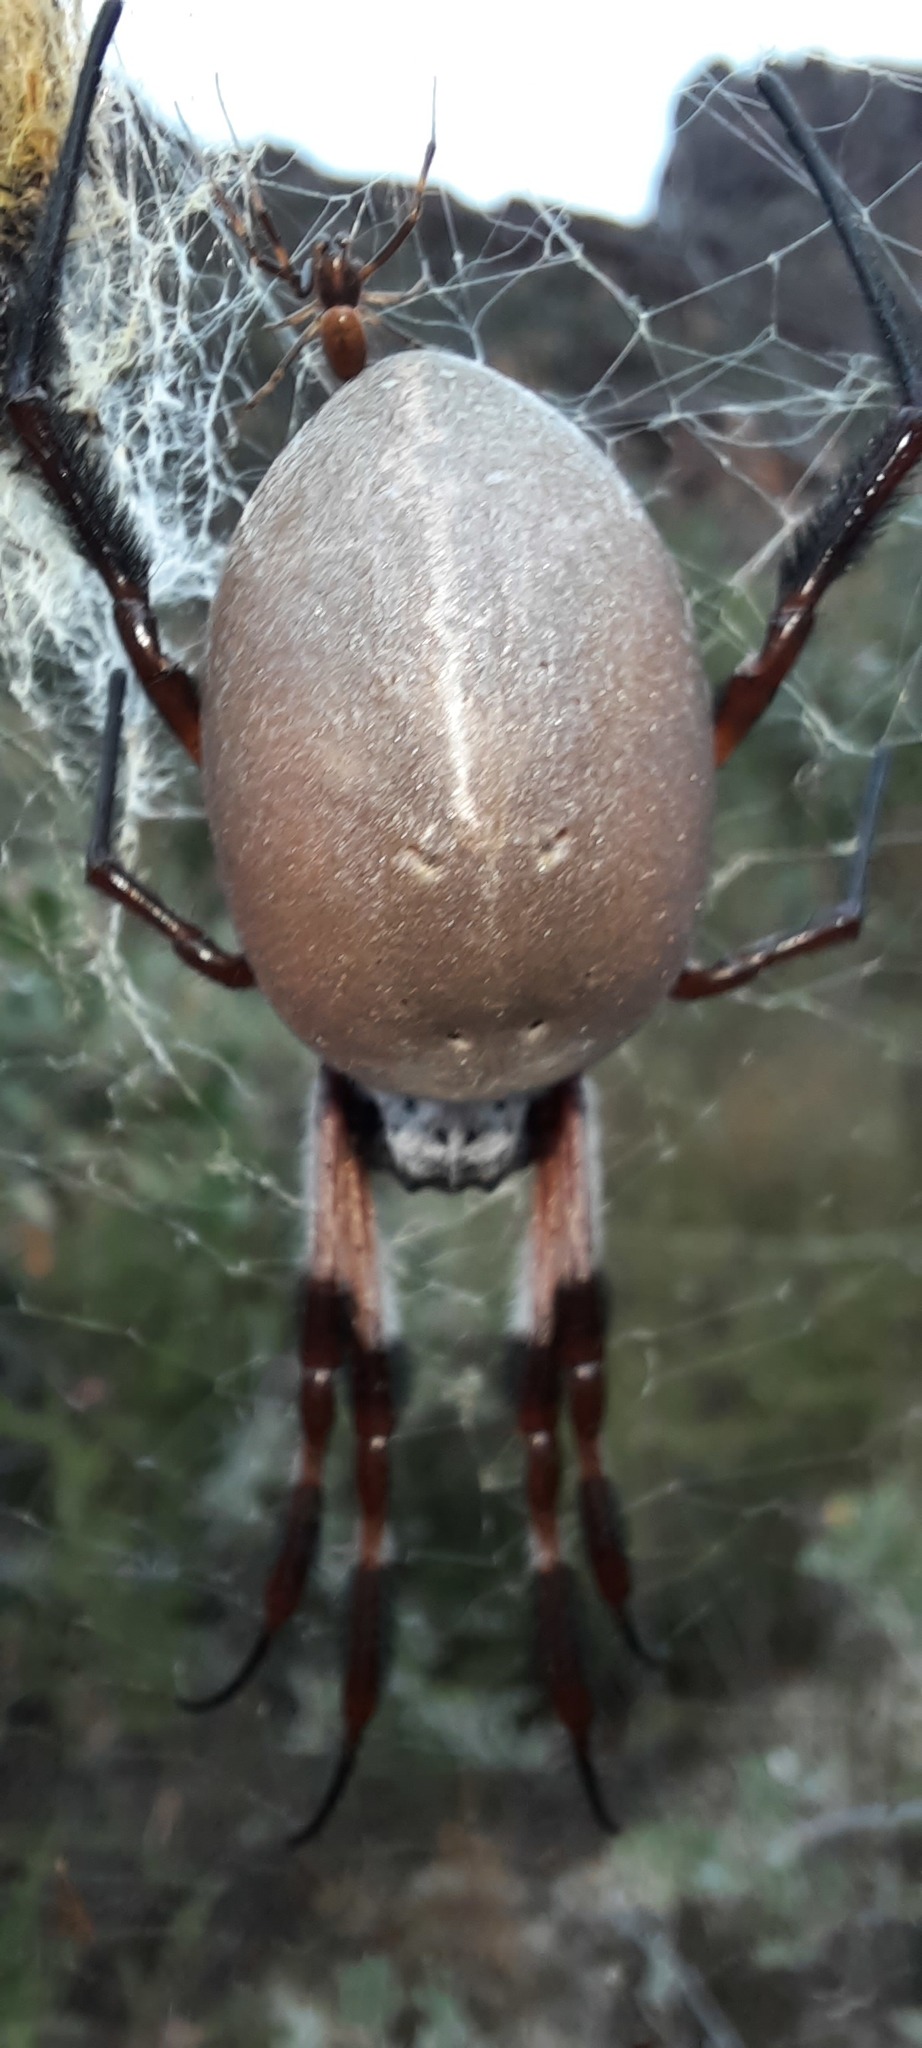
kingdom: Animalia
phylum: Arthropoda
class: Arachnida
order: Araneae
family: Araneidae
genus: Trichonephila
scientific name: Trichonephila edulis
